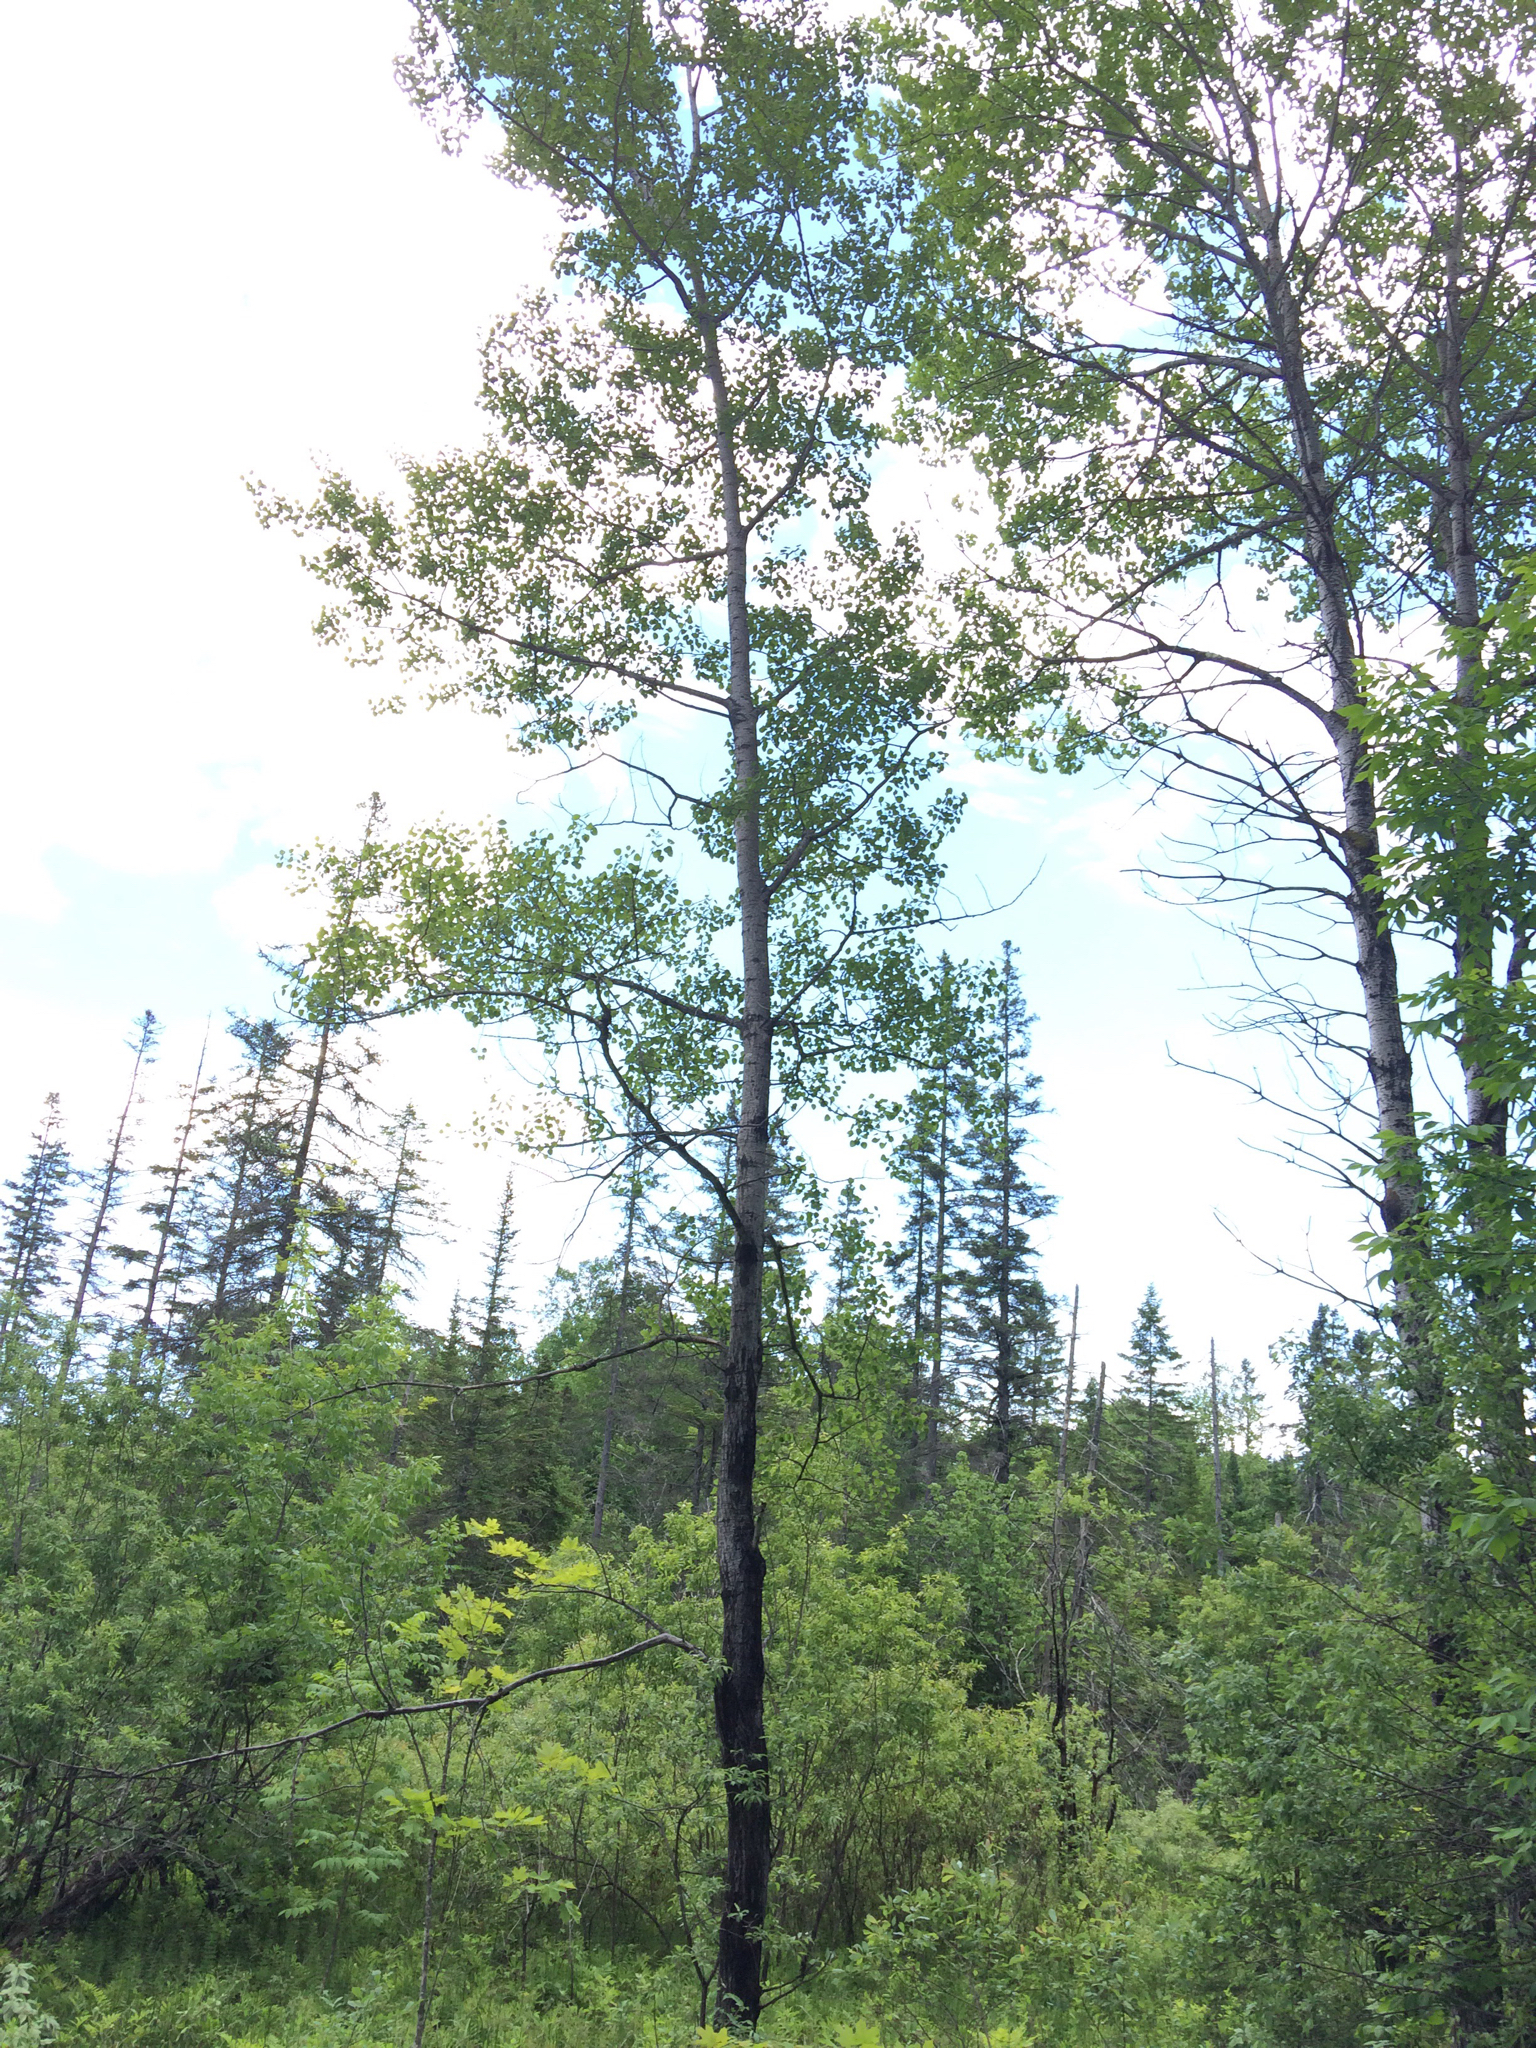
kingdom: Plantae
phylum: Tracheophyta
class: Magnoliopsida
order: Malpighiales
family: Salicaceae
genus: Populus
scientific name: Populus tremuloides
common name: Quaking aspen
